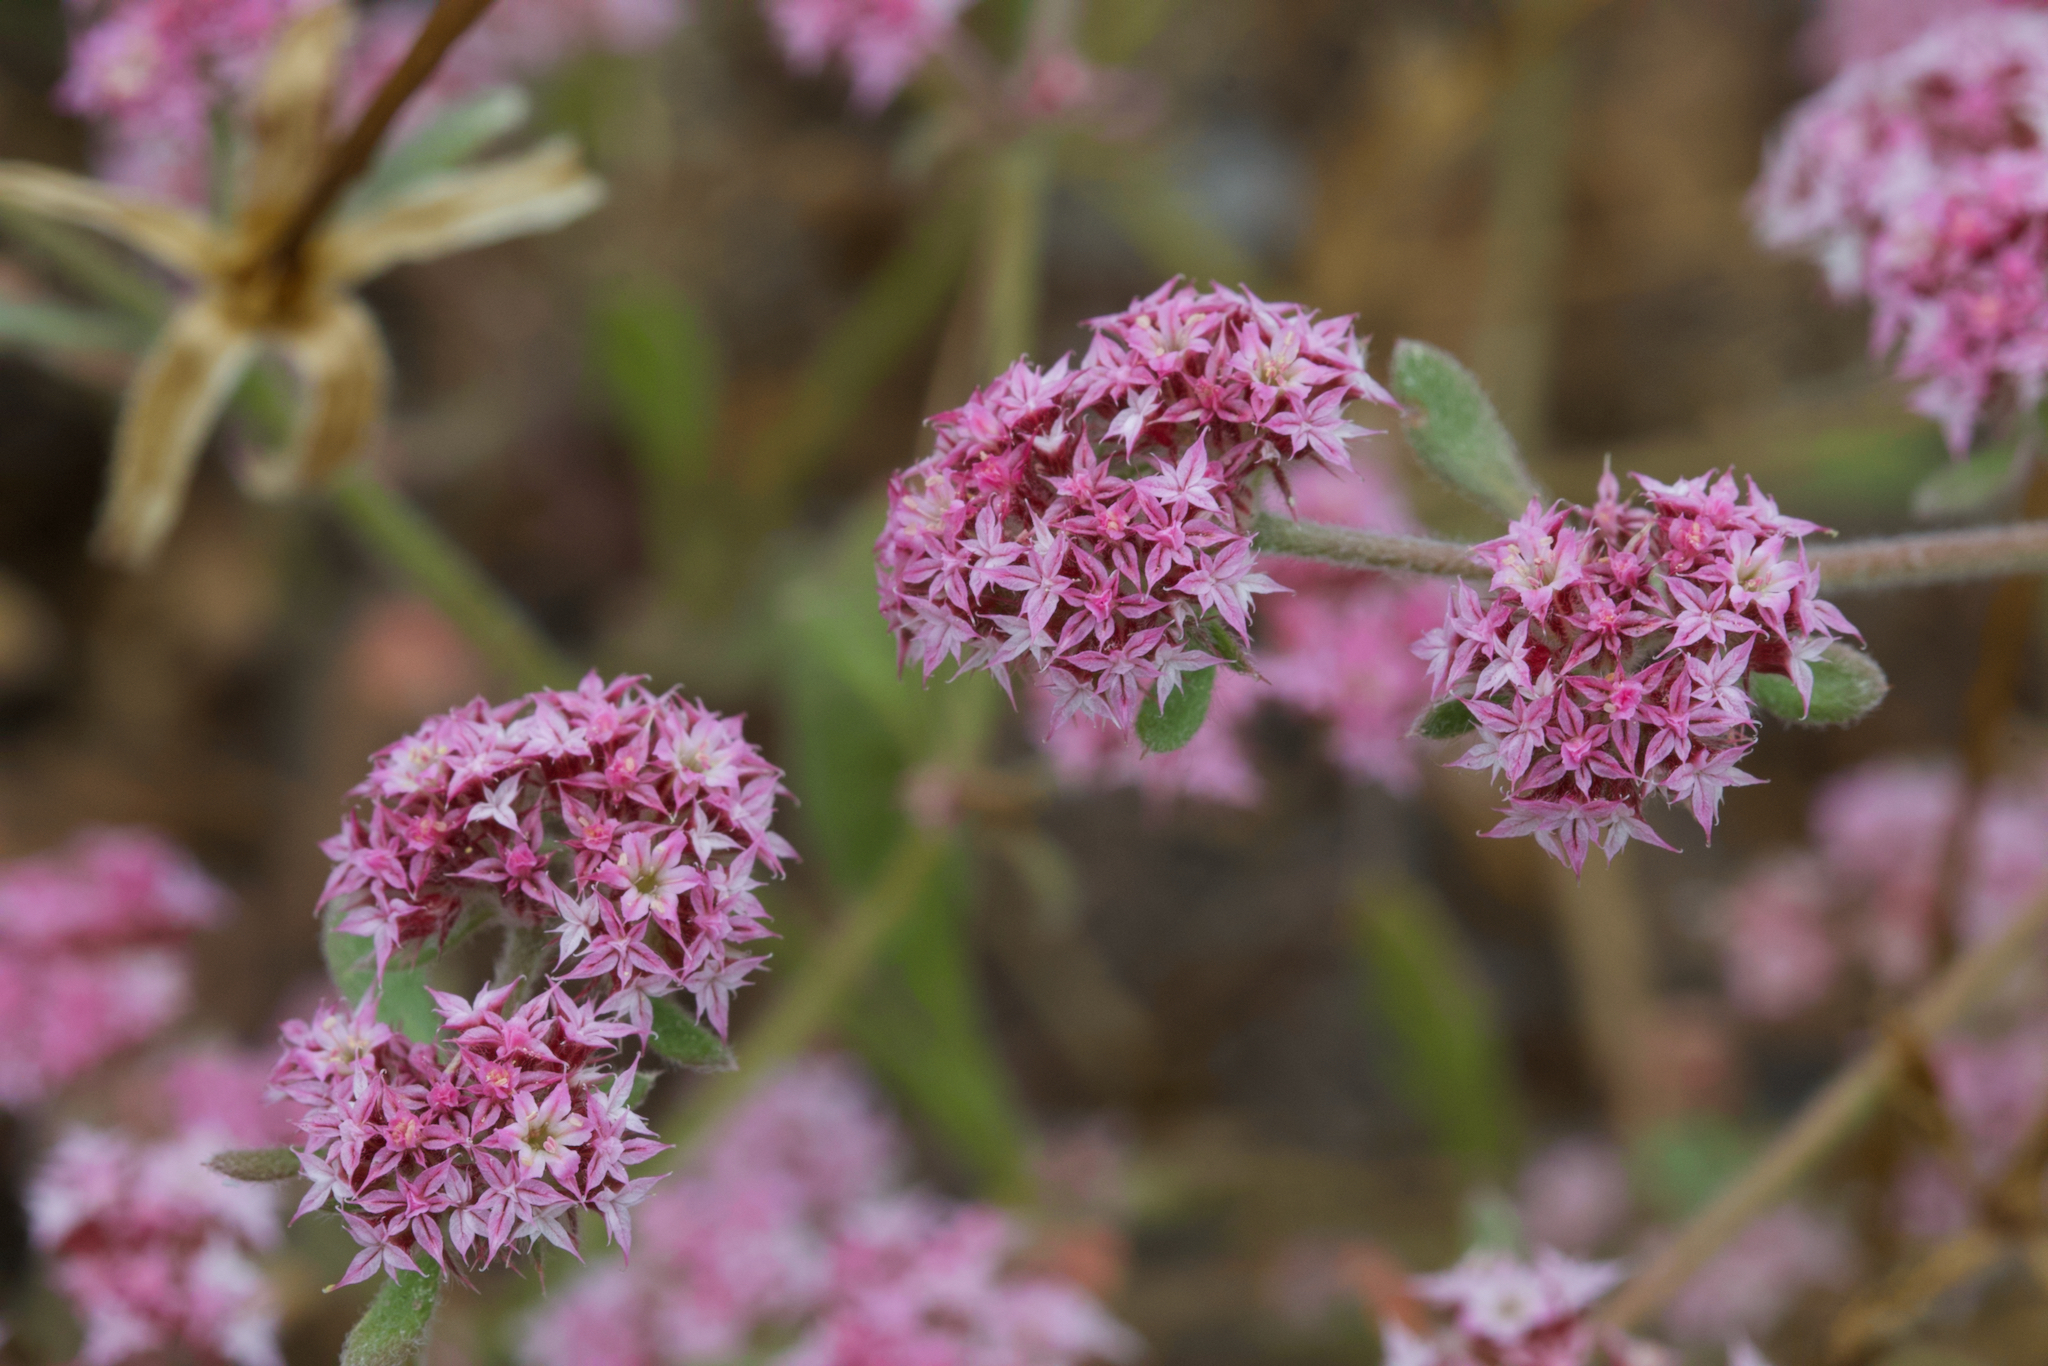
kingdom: Plantae
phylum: Tracheophyta
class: Magnoliopsida
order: Caryophyllales
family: Polygonaceae
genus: Chorizanthe
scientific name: Chorizanthe pungens
